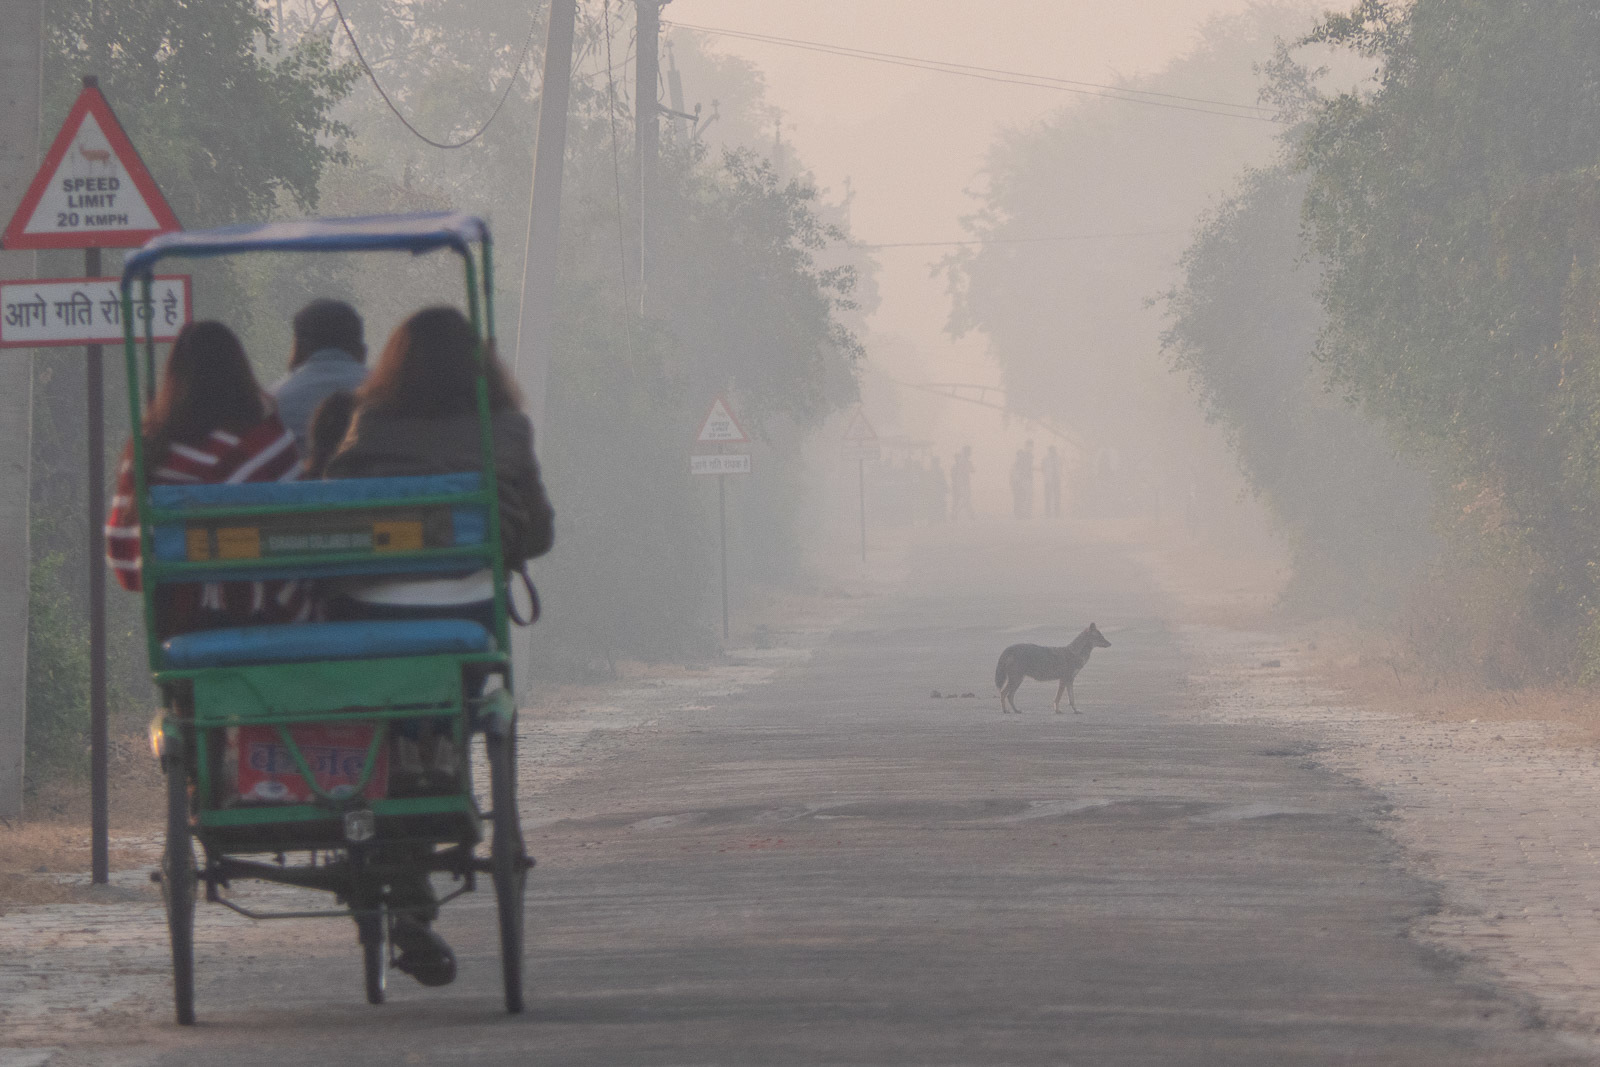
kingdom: Animalia
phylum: Chordata
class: Mammalia
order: Carnivora
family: Canidae
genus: Canis
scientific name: Canis aureus
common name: Golden jackal
